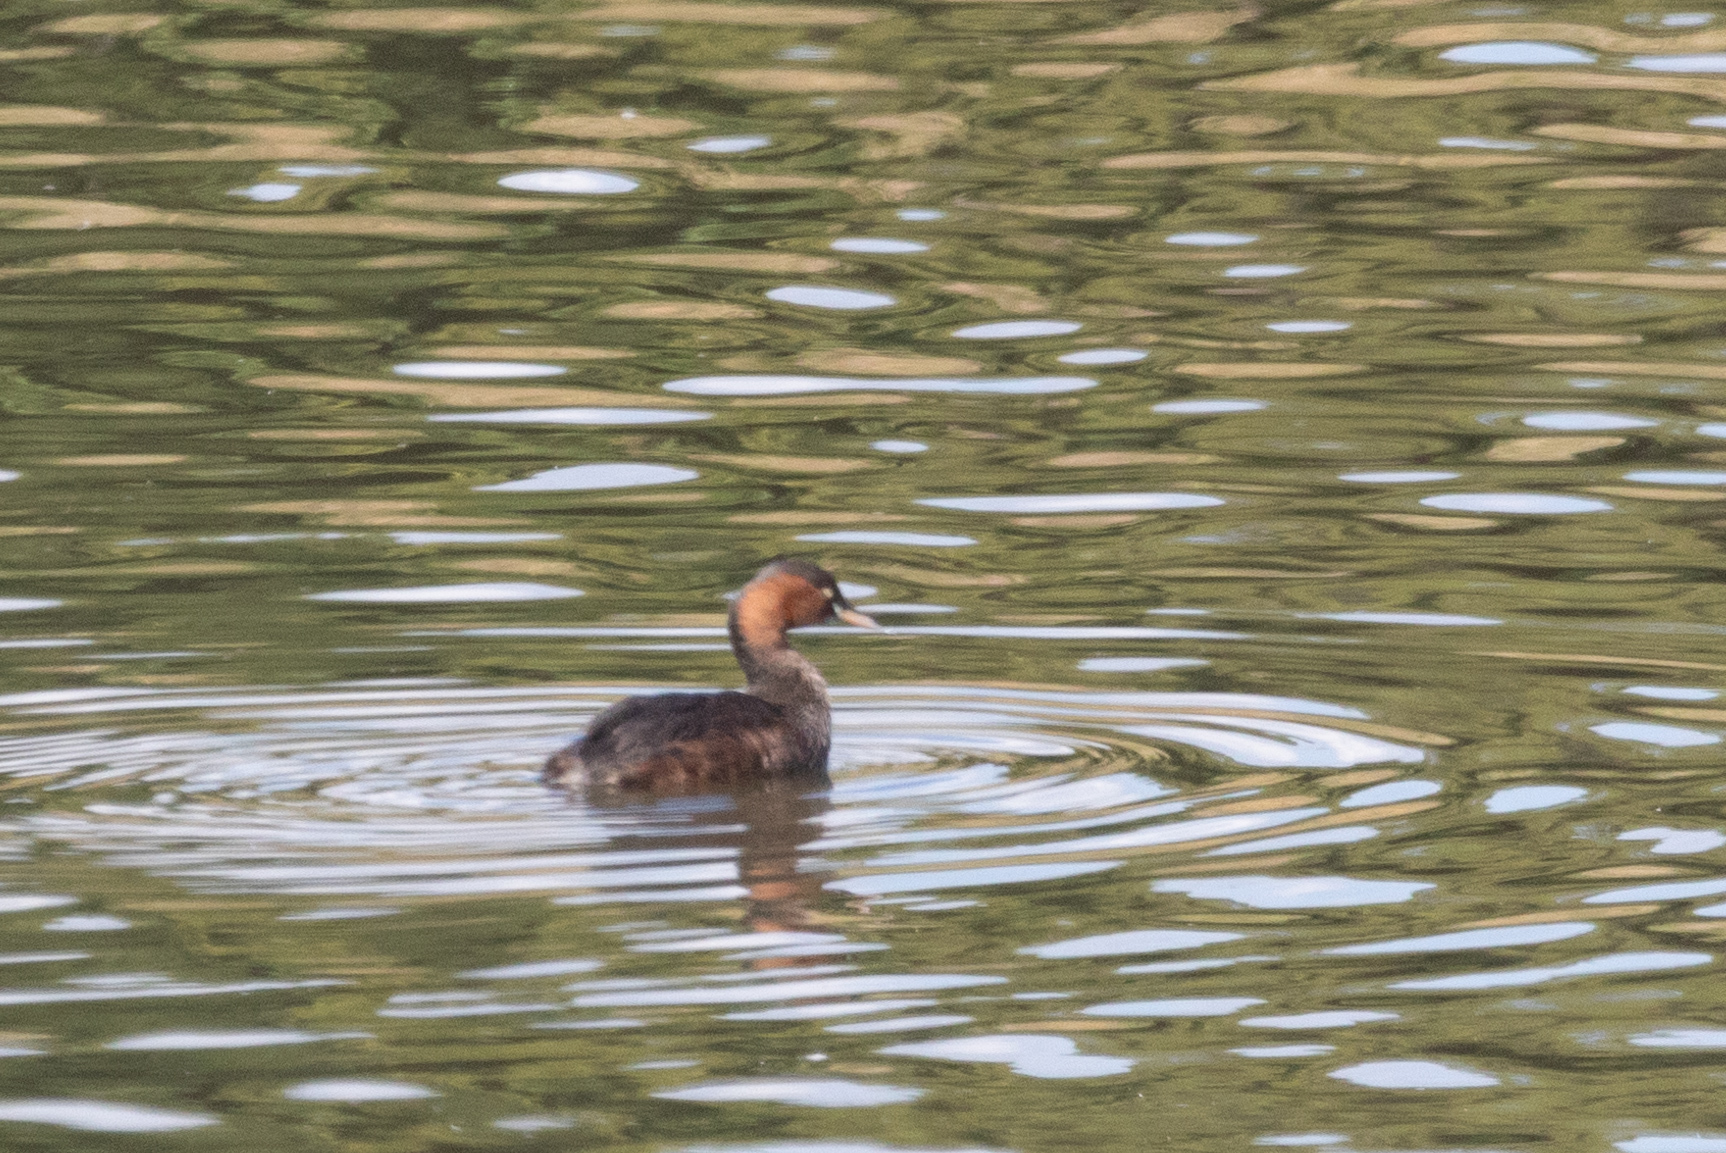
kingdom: Animalia
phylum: Chordata
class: Aves
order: Podicipediformes
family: Podicipedidae
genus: Tachybaptus
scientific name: Tachybaptus ruficollis
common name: Little grebe
